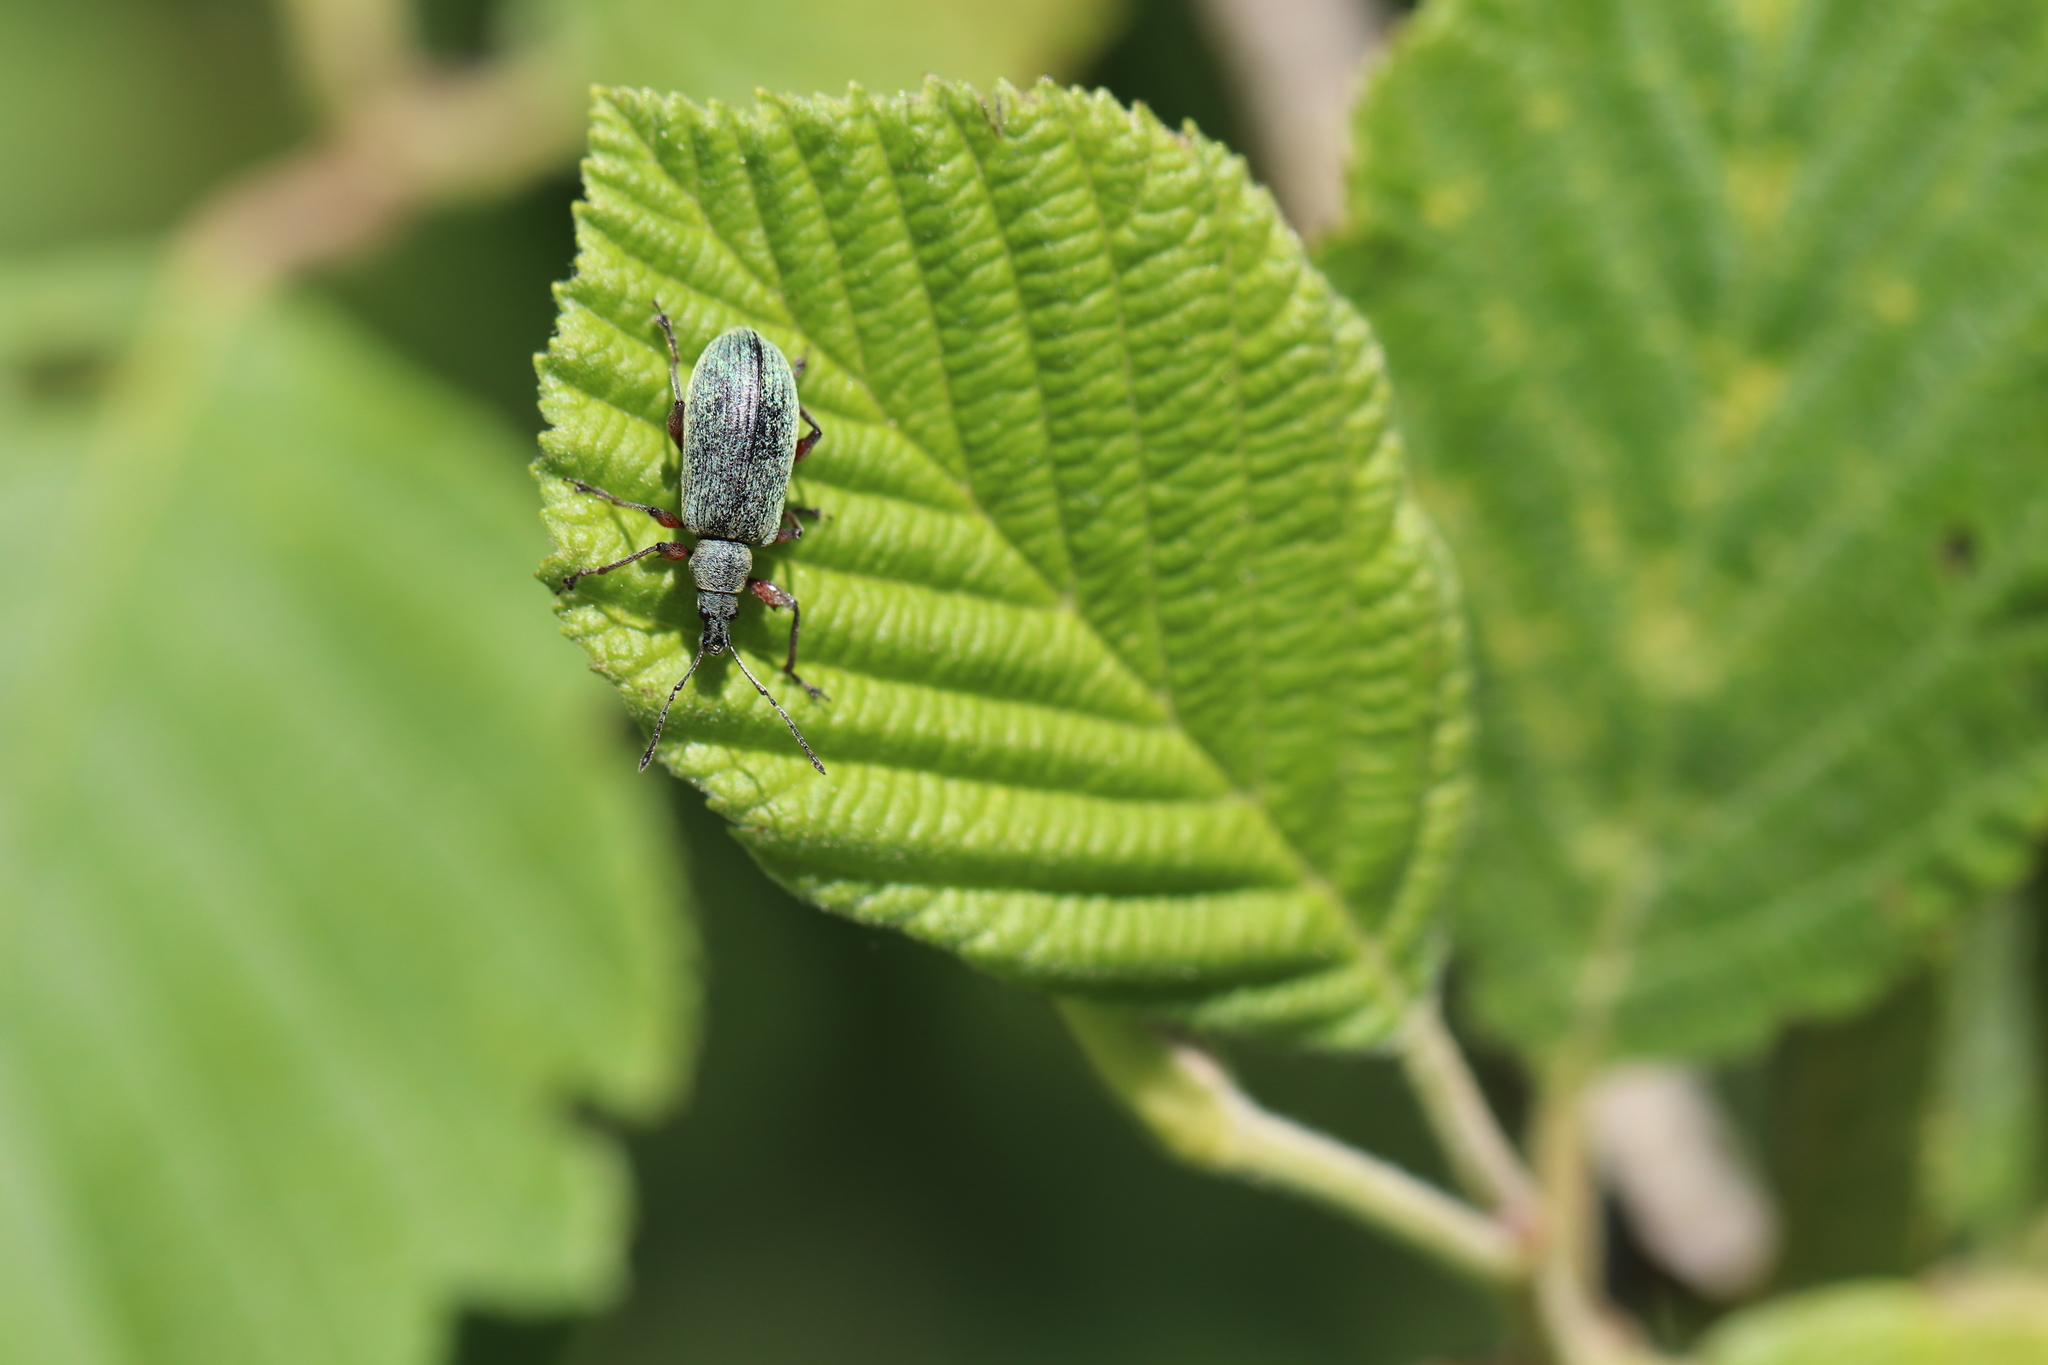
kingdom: Animalia
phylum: Arthropoda
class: Insecta
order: Coleoptera
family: Curculionidae
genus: Phyllobius
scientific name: Phyllobius glaucus
